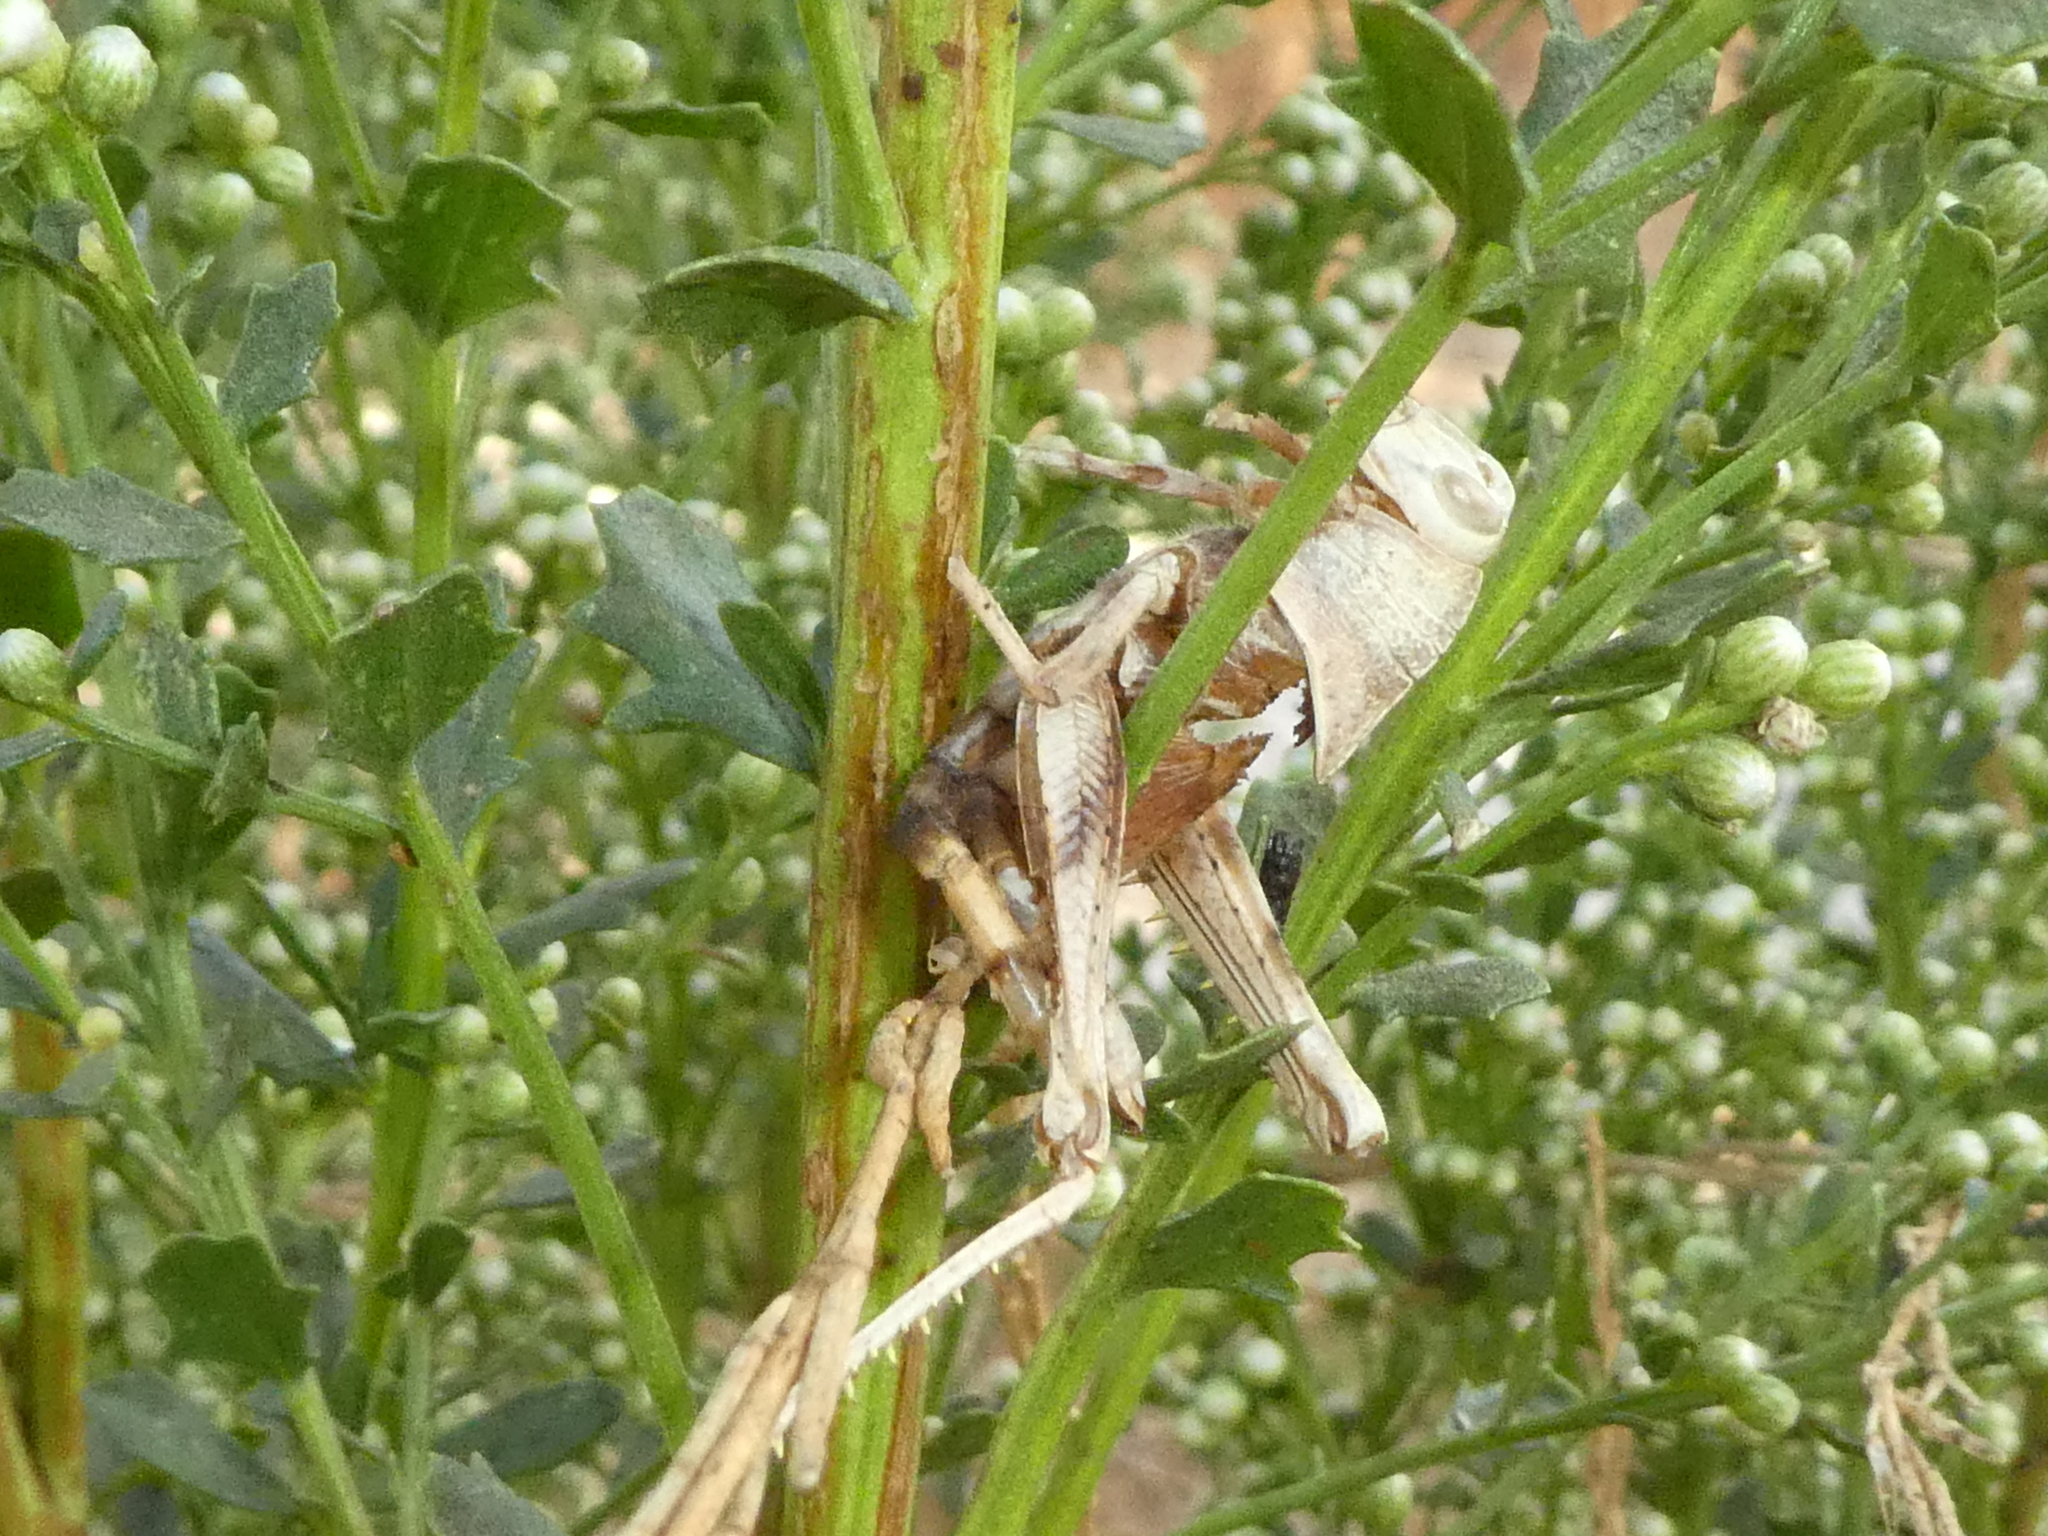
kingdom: Animalia
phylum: Arthropoda
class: Insecta
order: Orthoptera
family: Acrididae
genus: Schistocerca
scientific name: Schistocerca nitens
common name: Vagrant grasshopper
